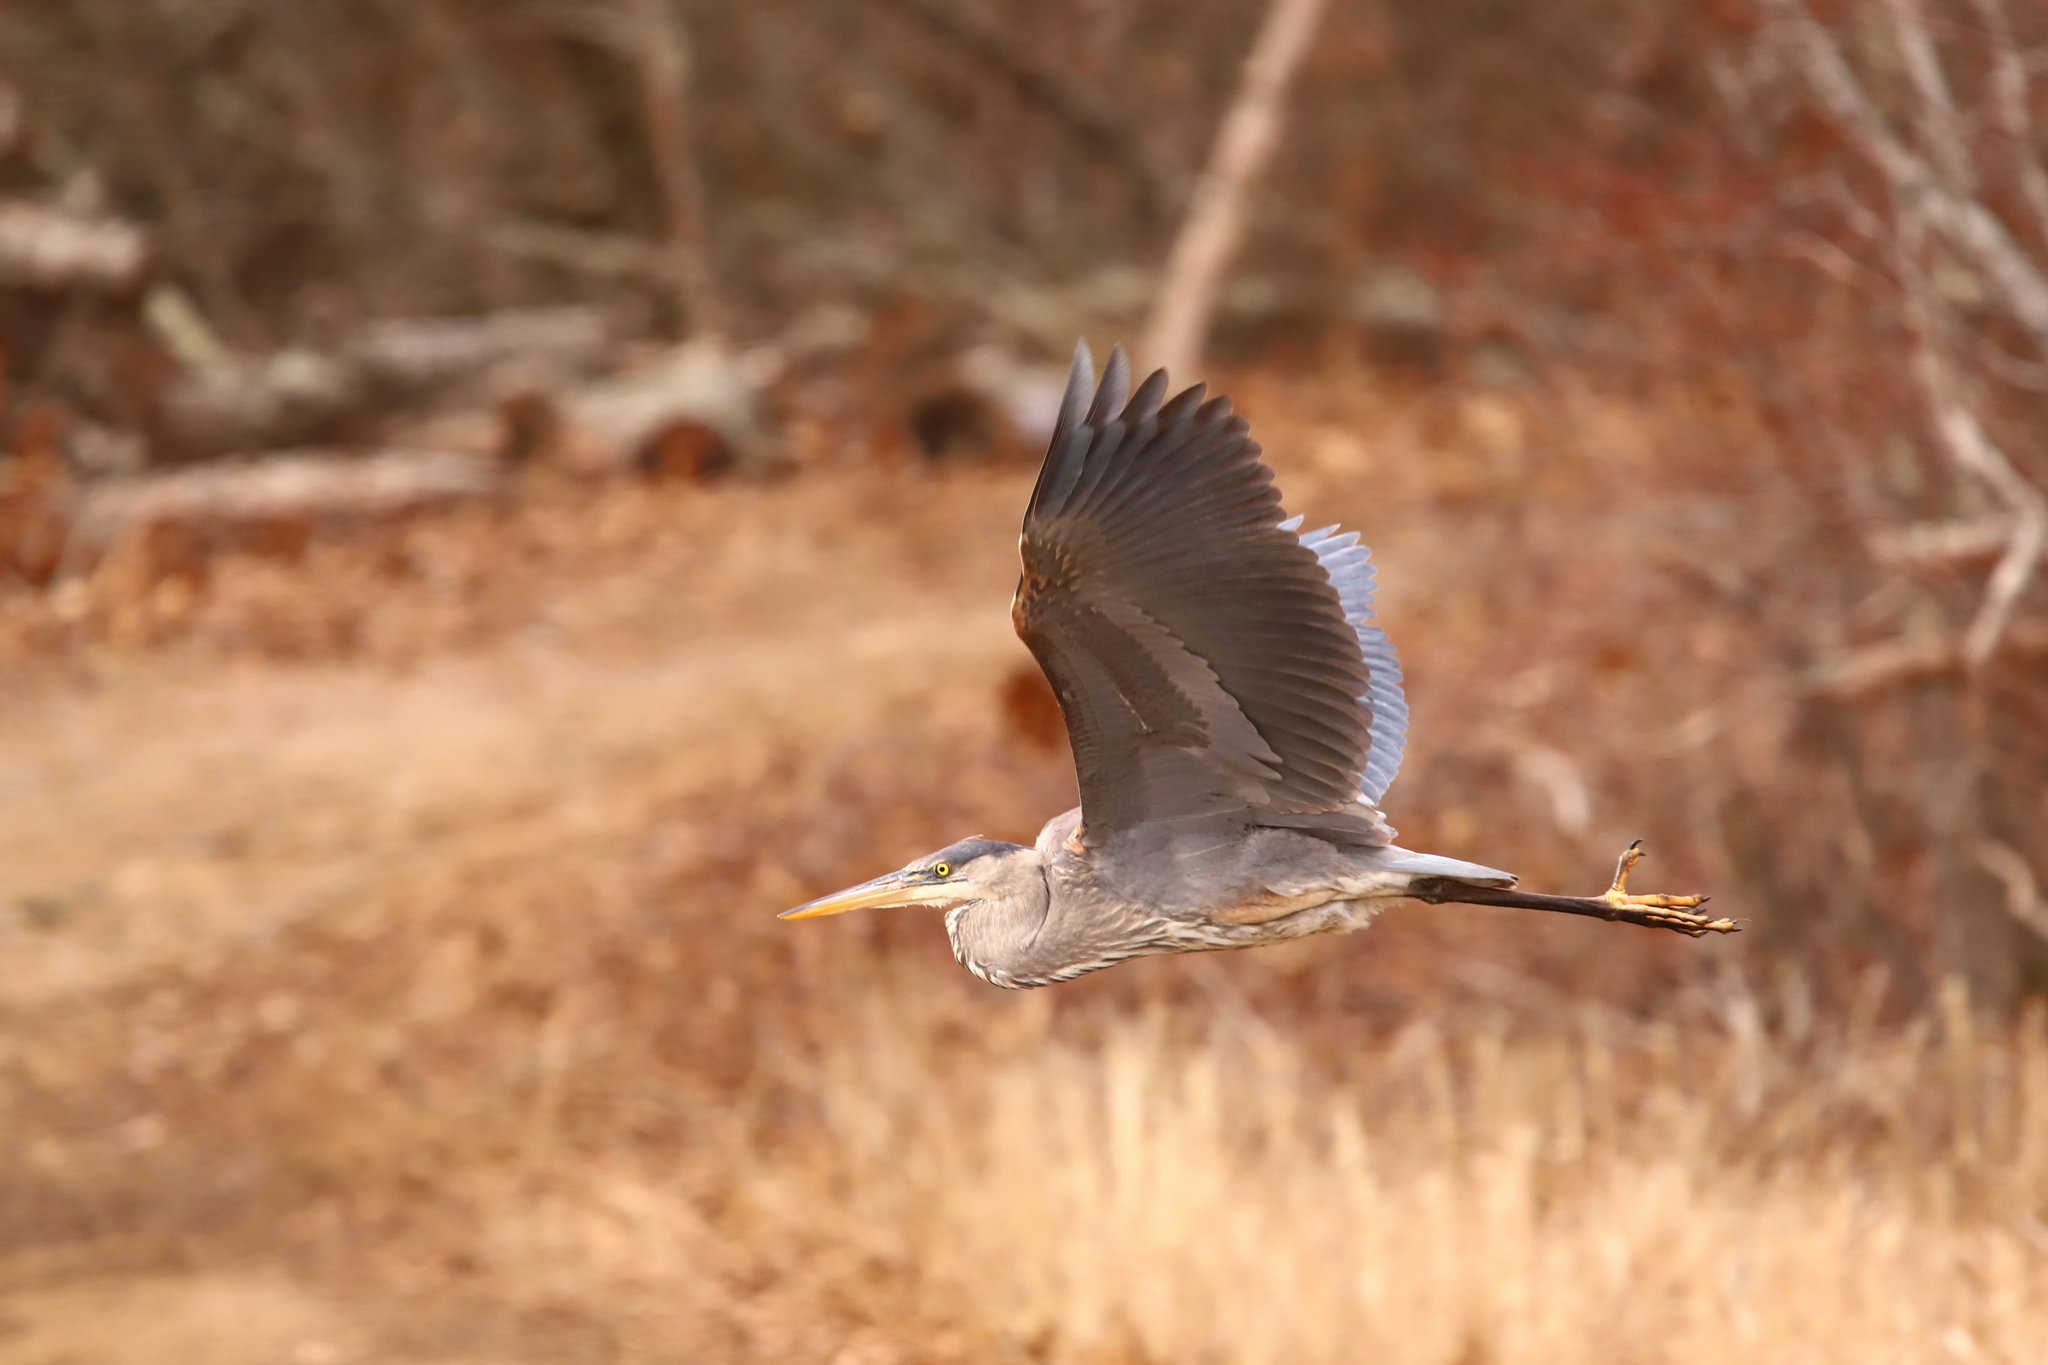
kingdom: Animalia
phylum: Chordata
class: Aves
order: Pelecaniformes
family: Ardeidae
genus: Ardea
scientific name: Ardea herodias
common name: Great blue heron
